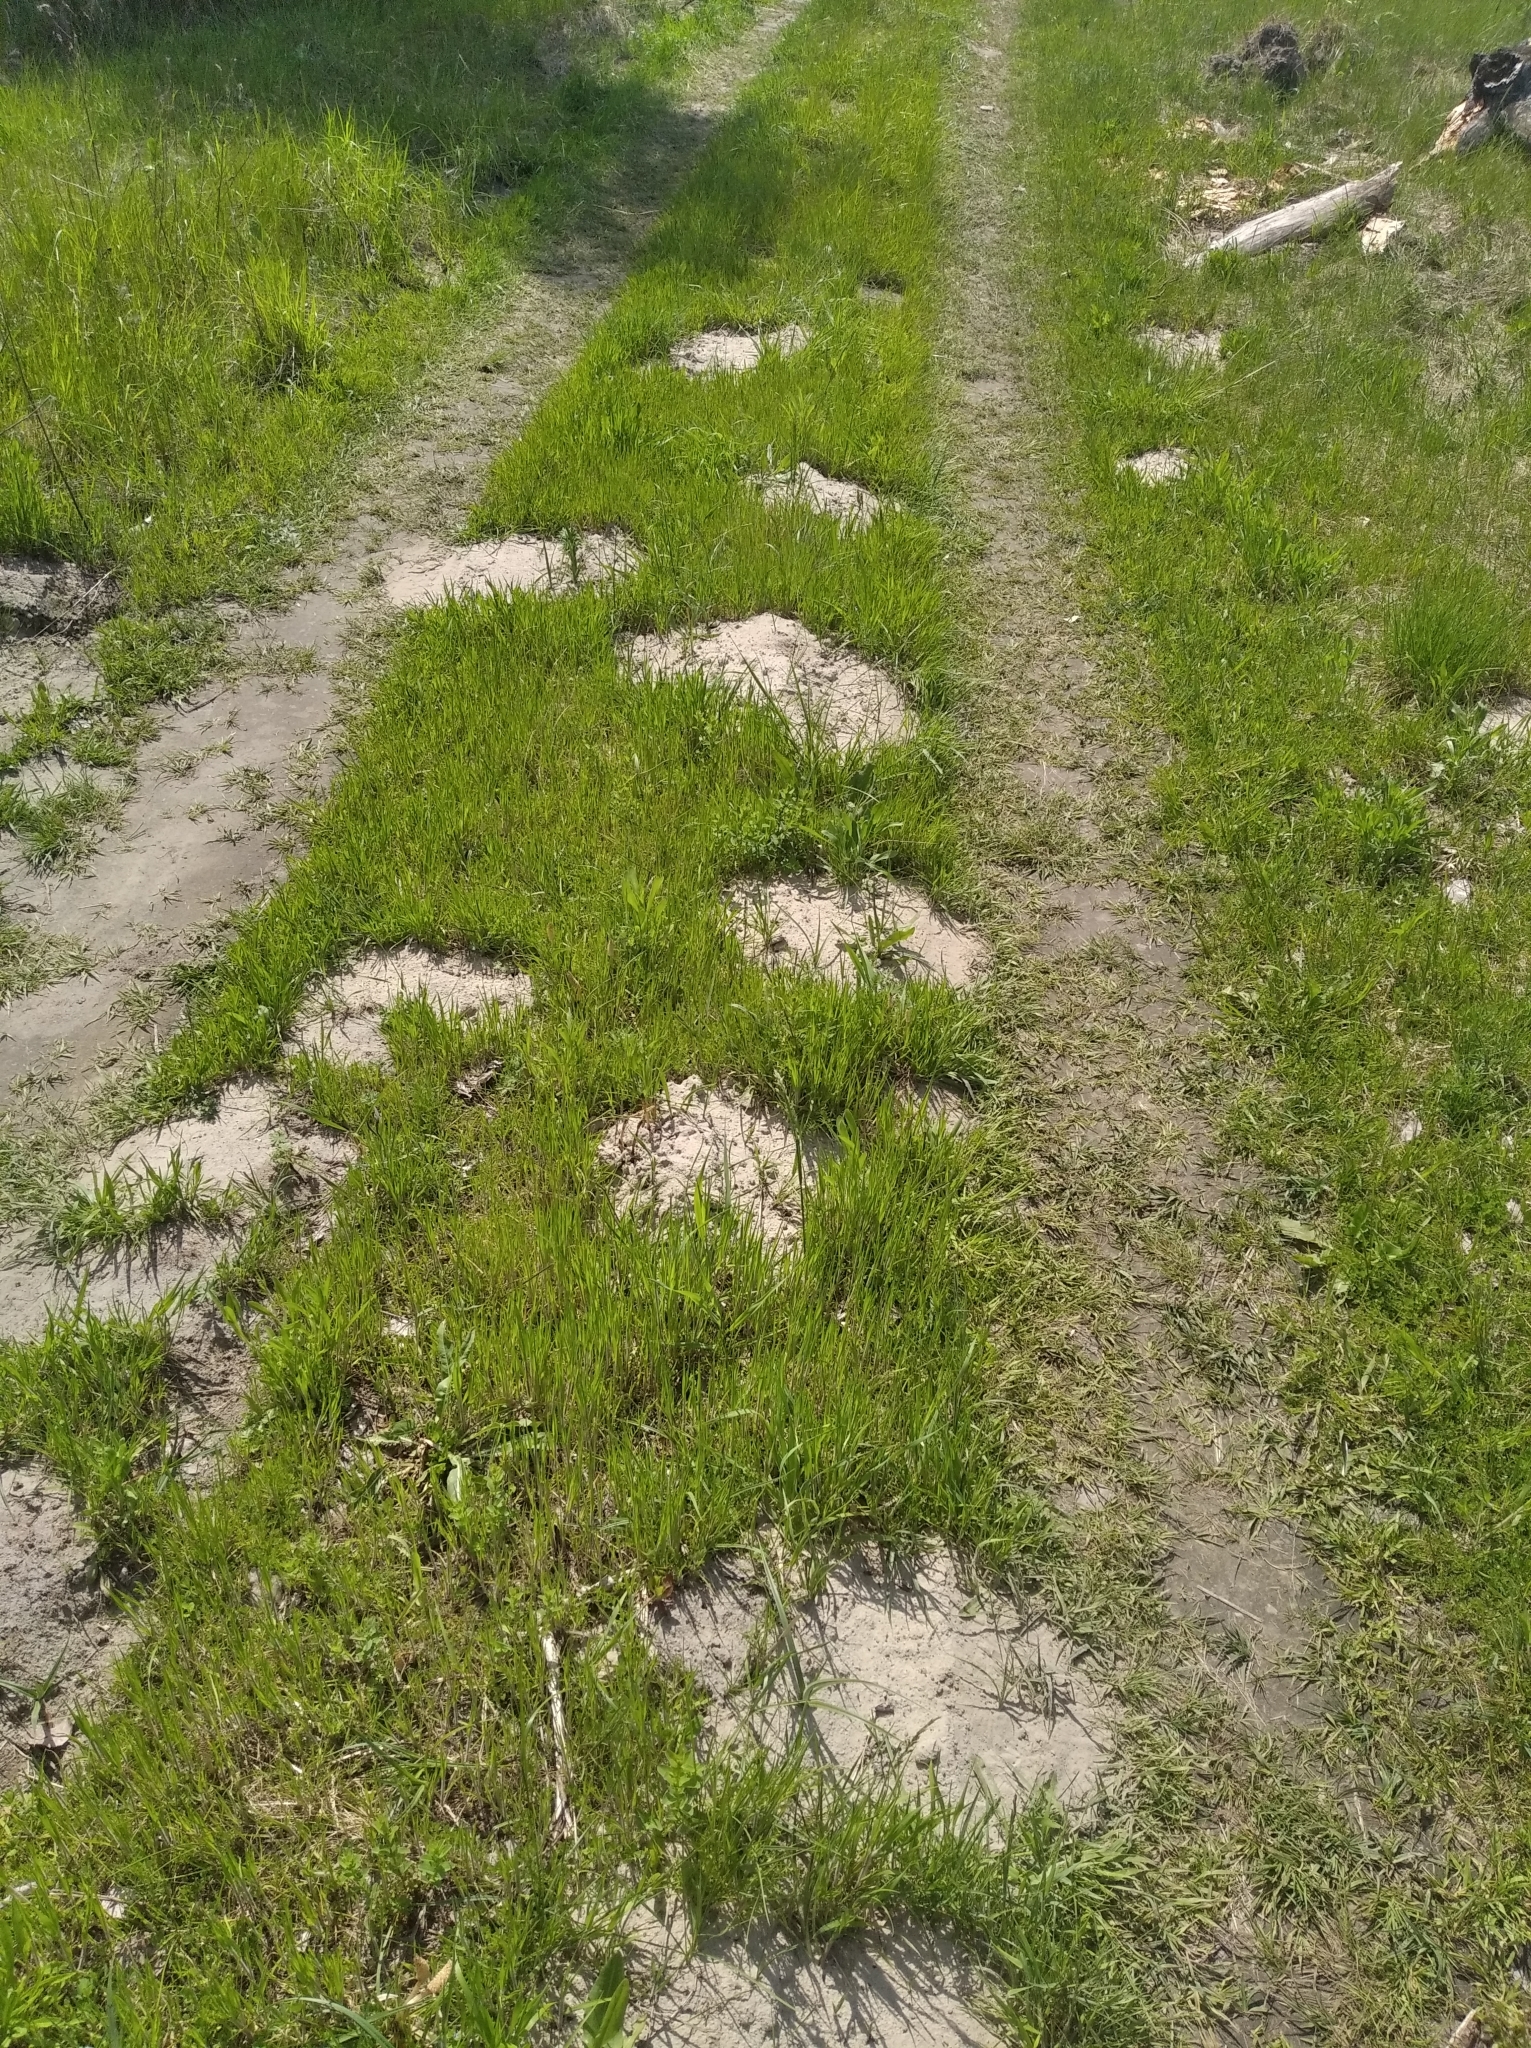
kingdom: Animalia
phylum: Chordata
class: Mammalia
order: Soricomorpha
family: Talpidae
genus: Talpa
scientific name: Talpa europaea
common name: European mole
